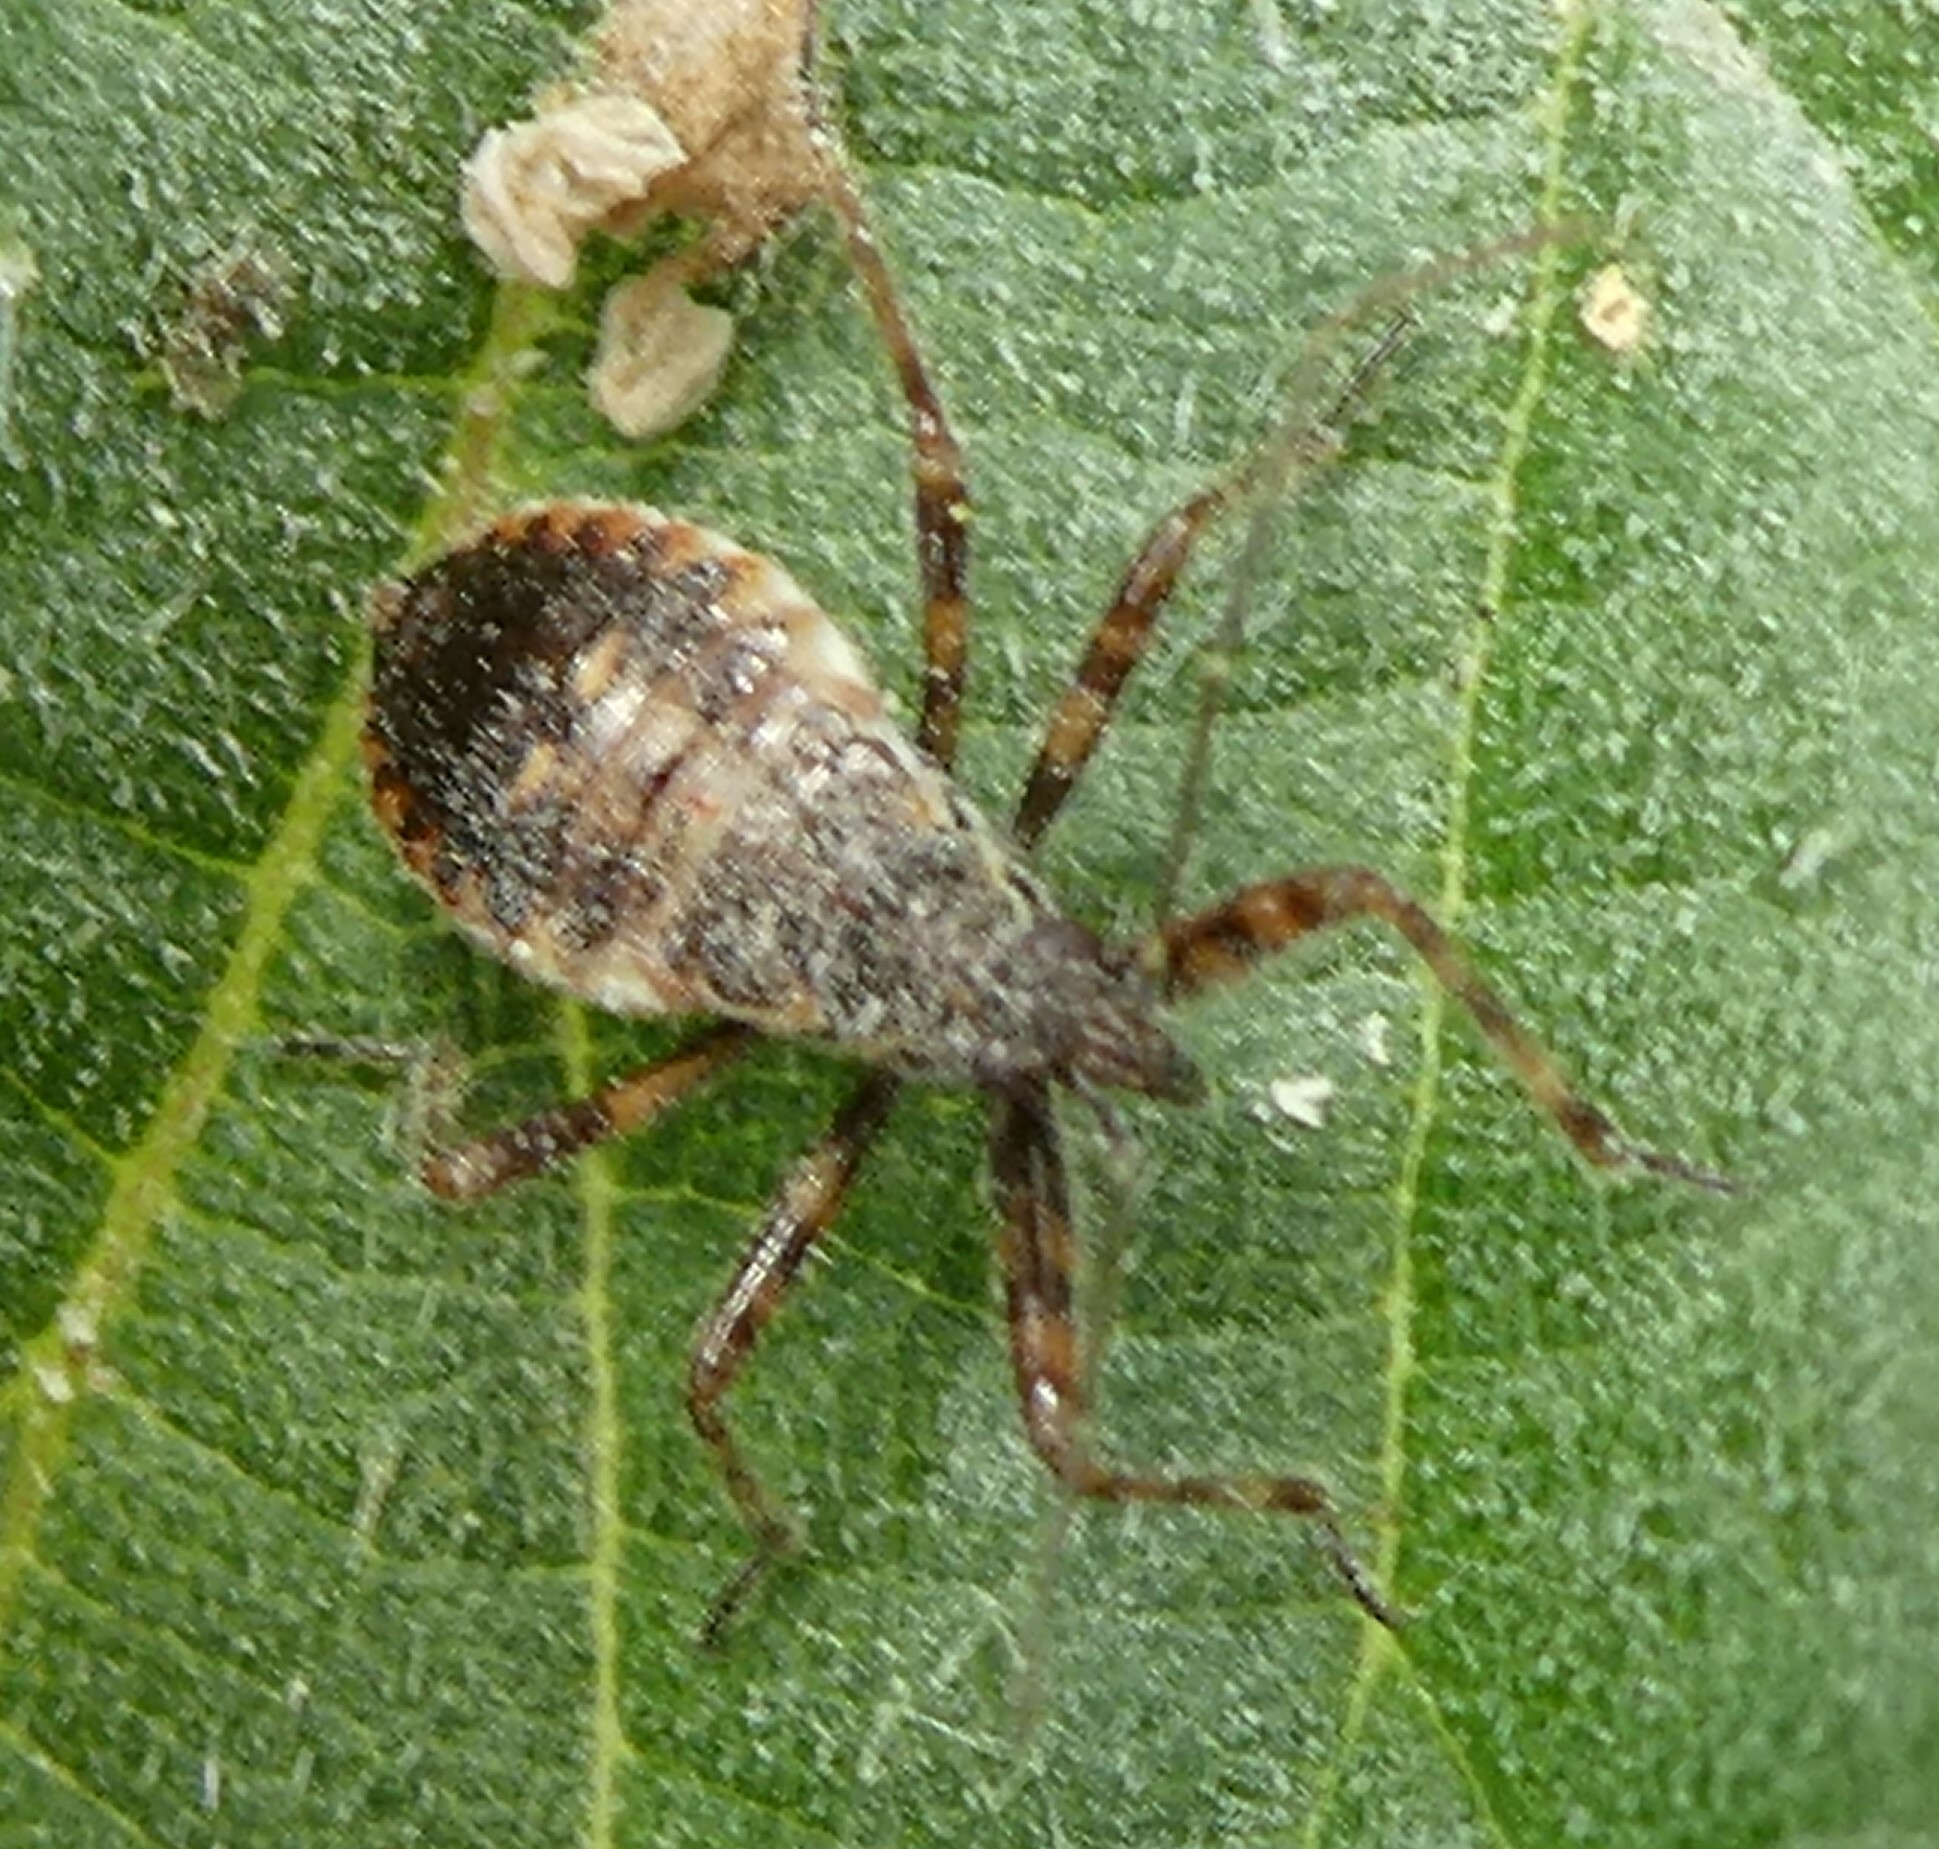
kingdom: Animalia
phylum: Arthropoda
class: Insecta
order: Hemiptera
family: Nabidae
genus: Himacerus
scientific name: Himacerus apterus
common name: Tree damsel bug
